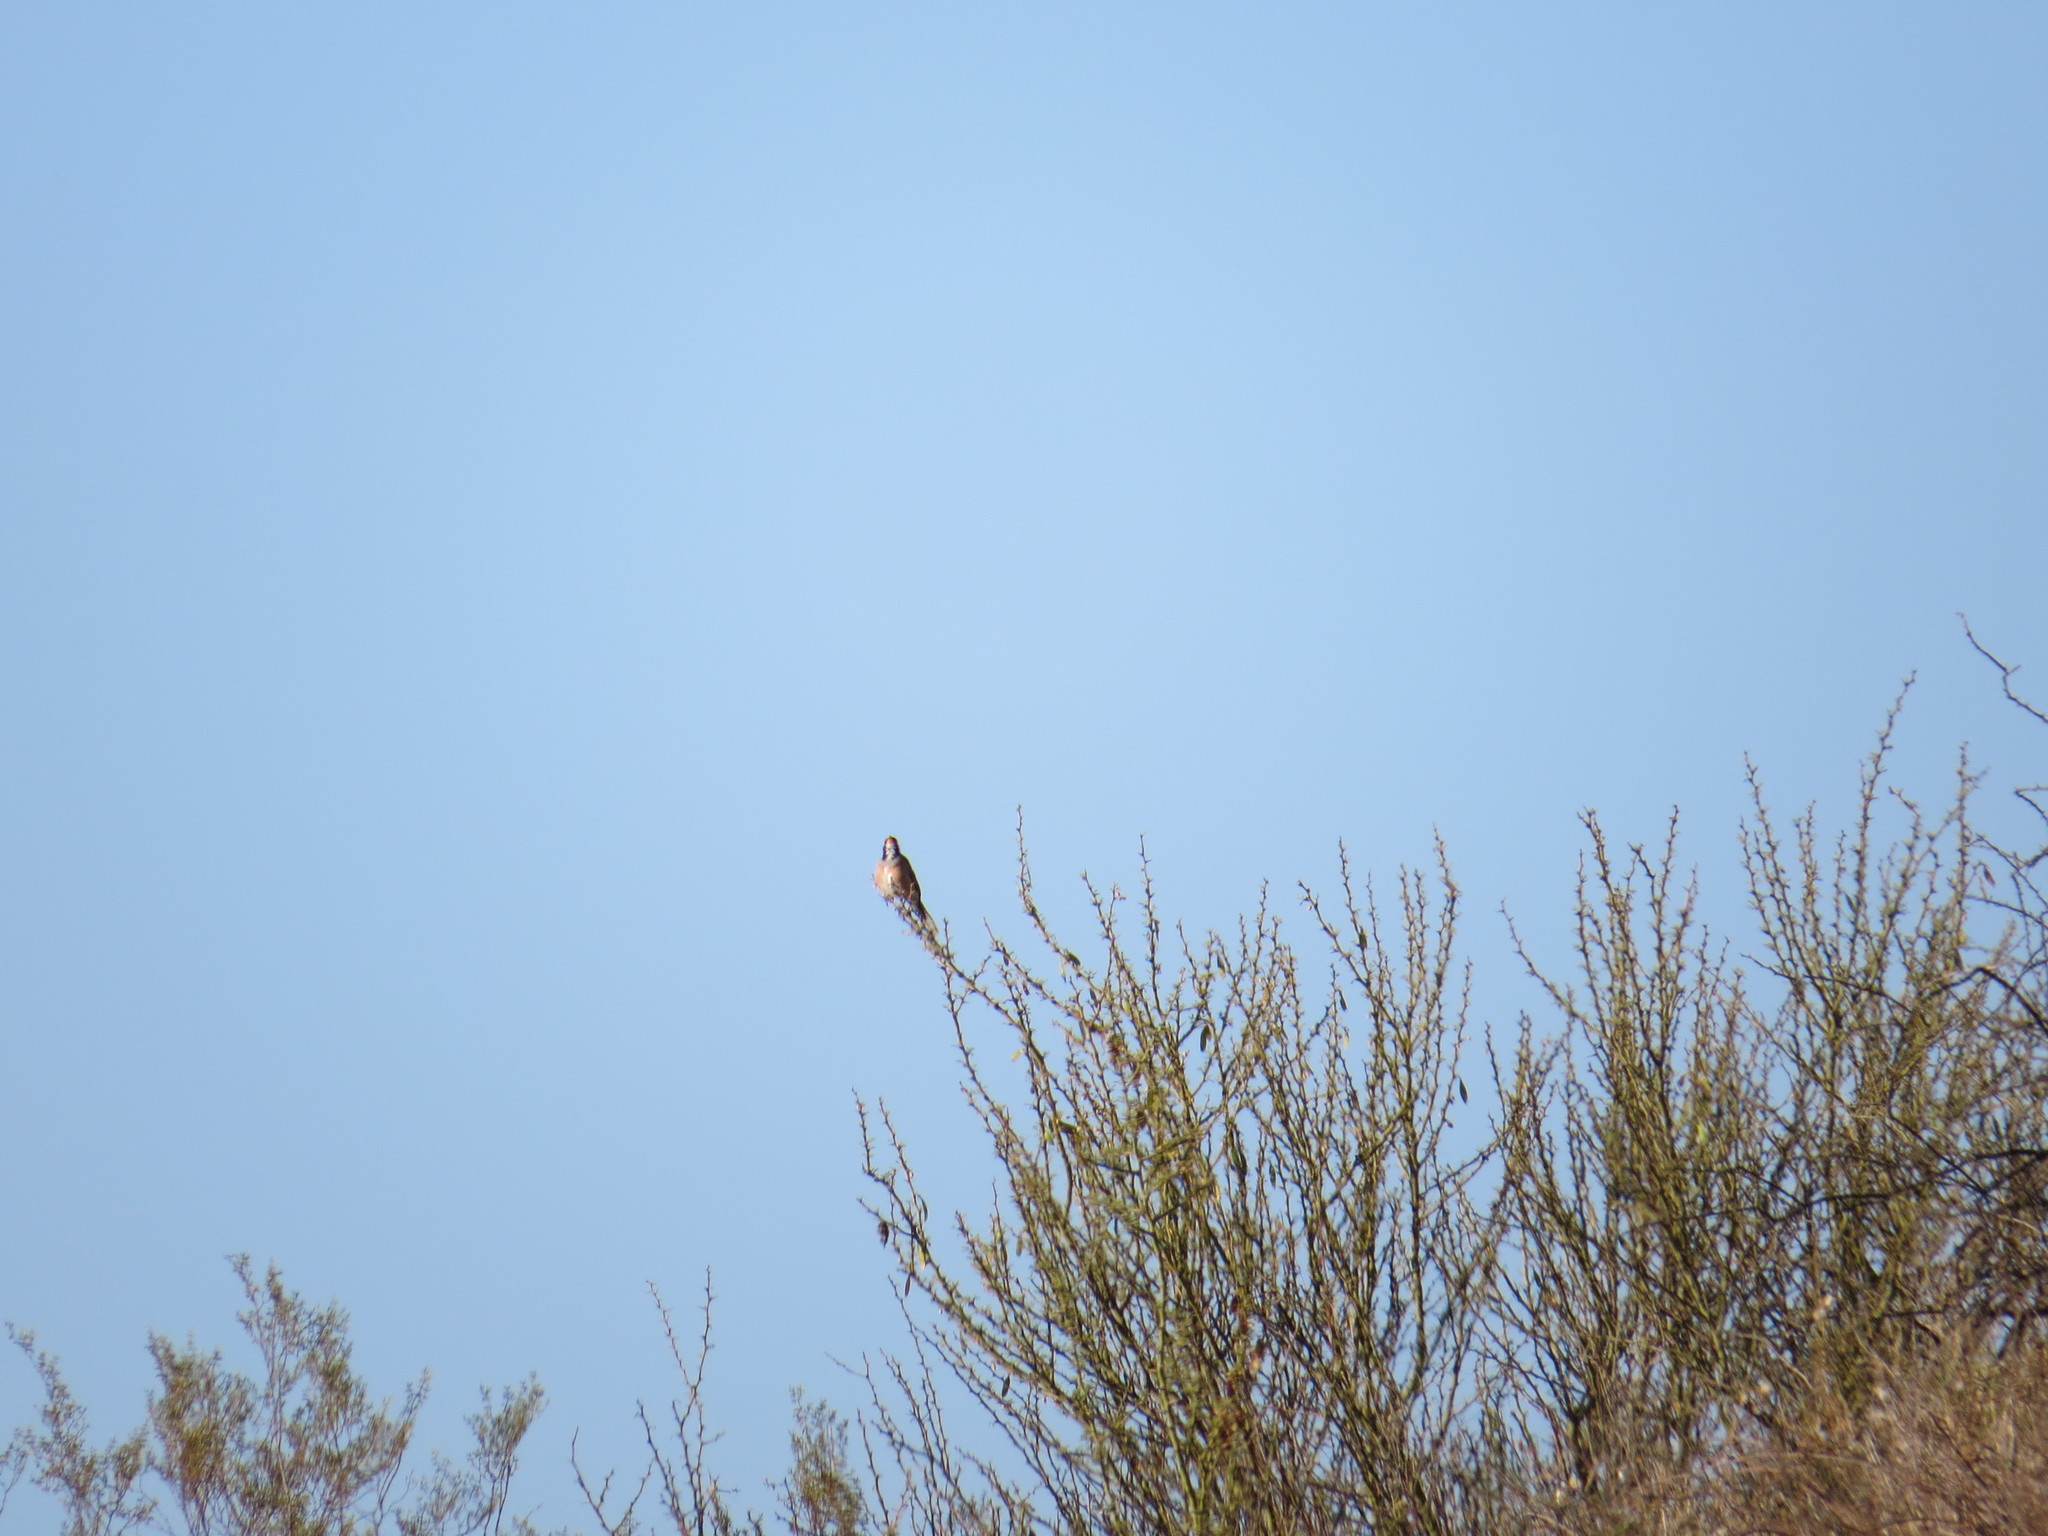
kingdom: Animalia
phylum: Chordata
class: Aves
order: Passeriformes
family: Thraupidae
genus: Saltatricula
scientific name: Saltatricula multicolor
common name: Many-colored chaco finch
